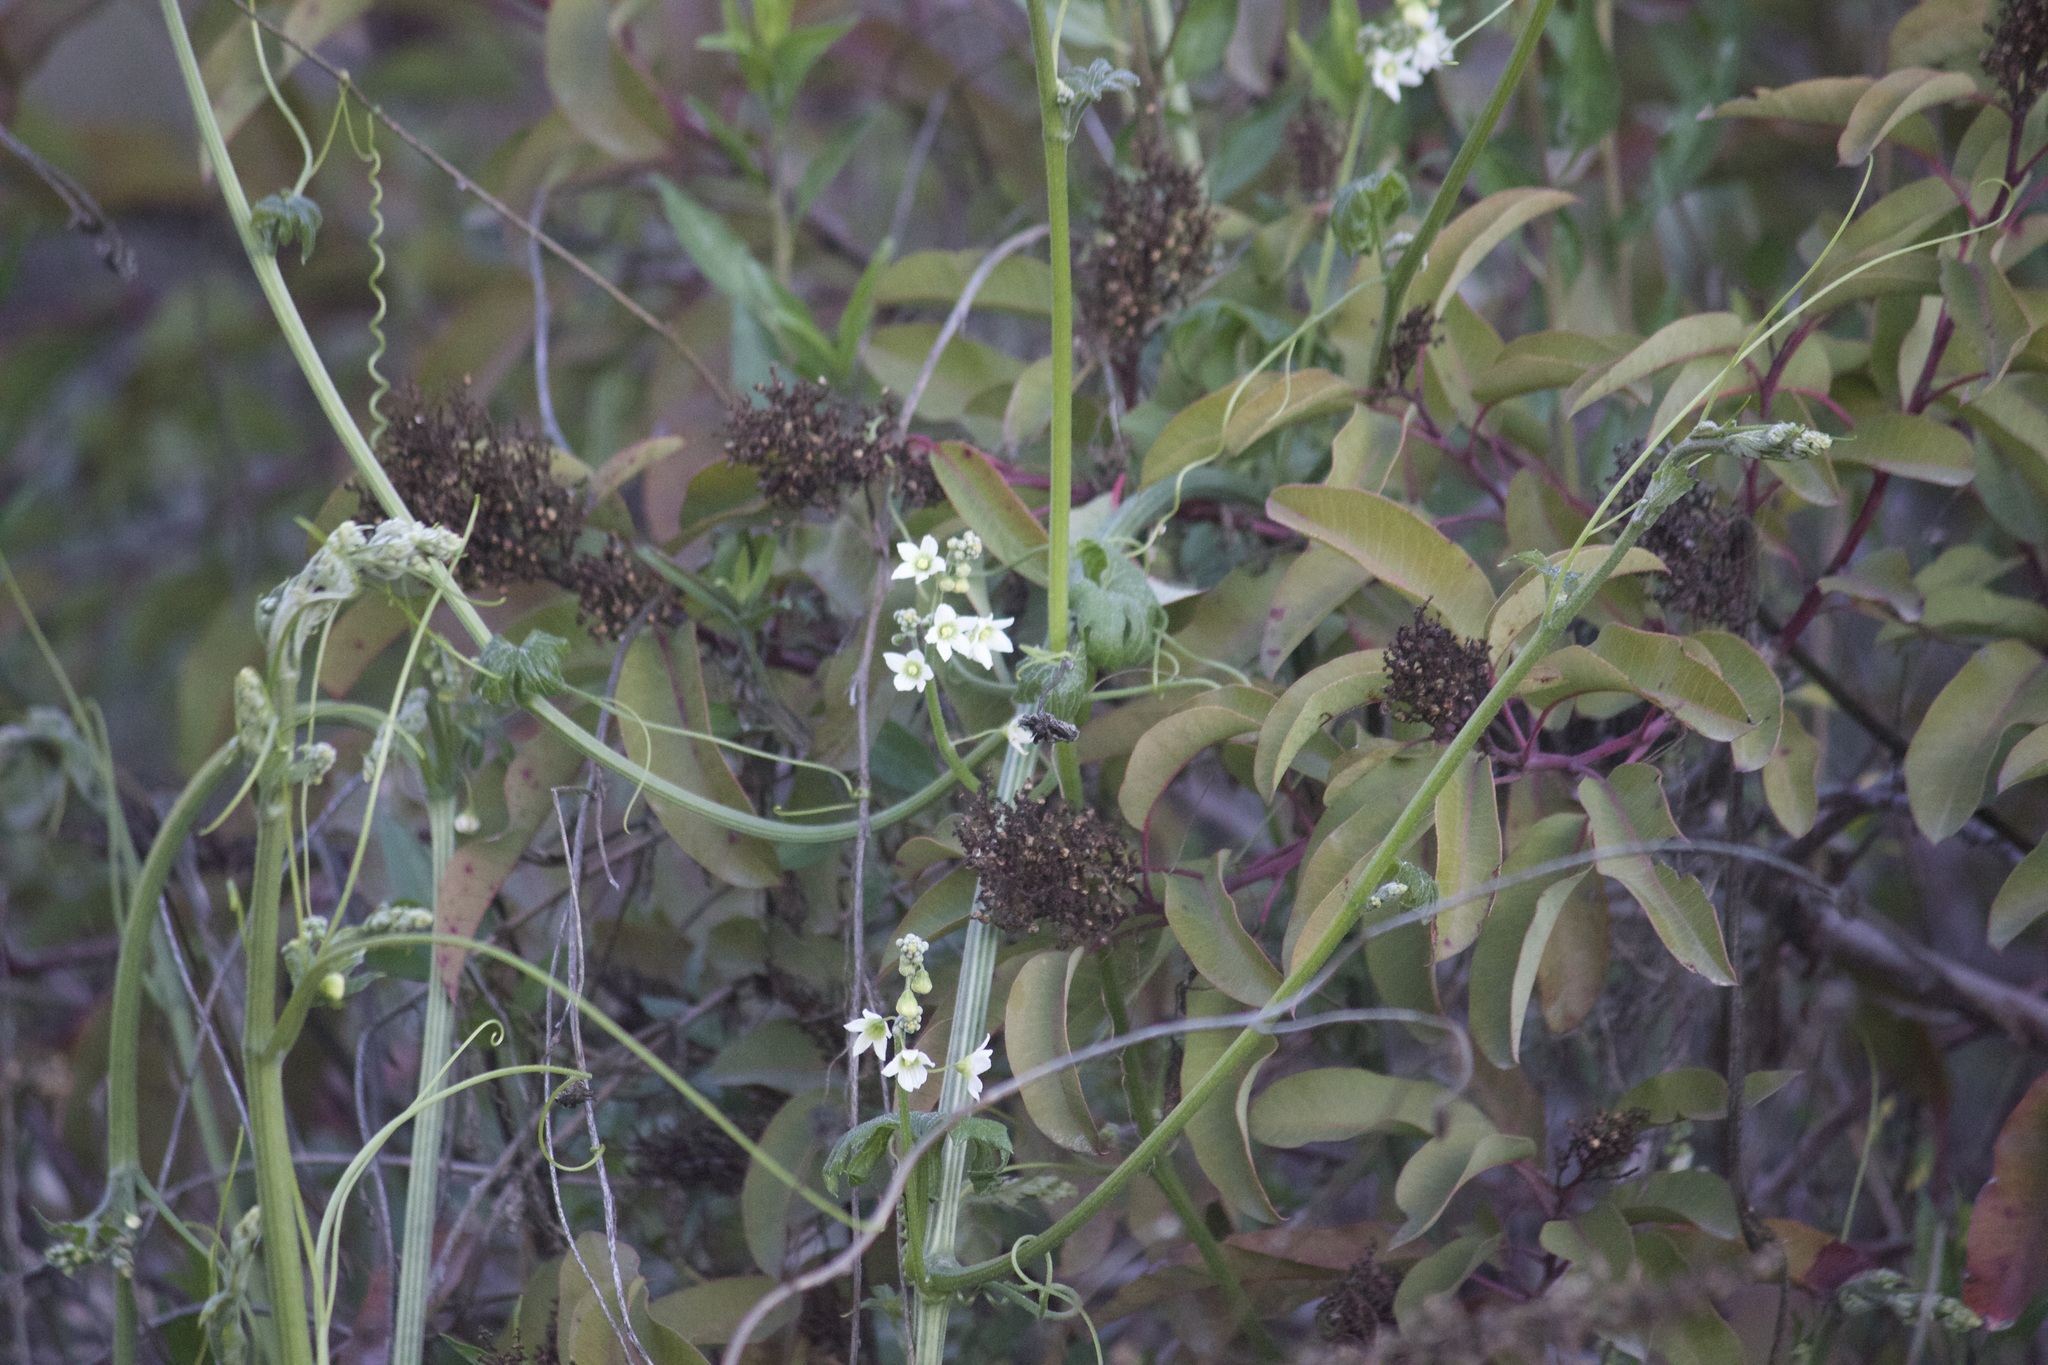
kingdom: Plantae
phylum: Tracheophyta
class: Magnoliopsida
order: Cucurbitales
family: Cucurbitaceae
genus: Marah
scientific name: Marah macrocarpa
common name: Cucamonga manroot
